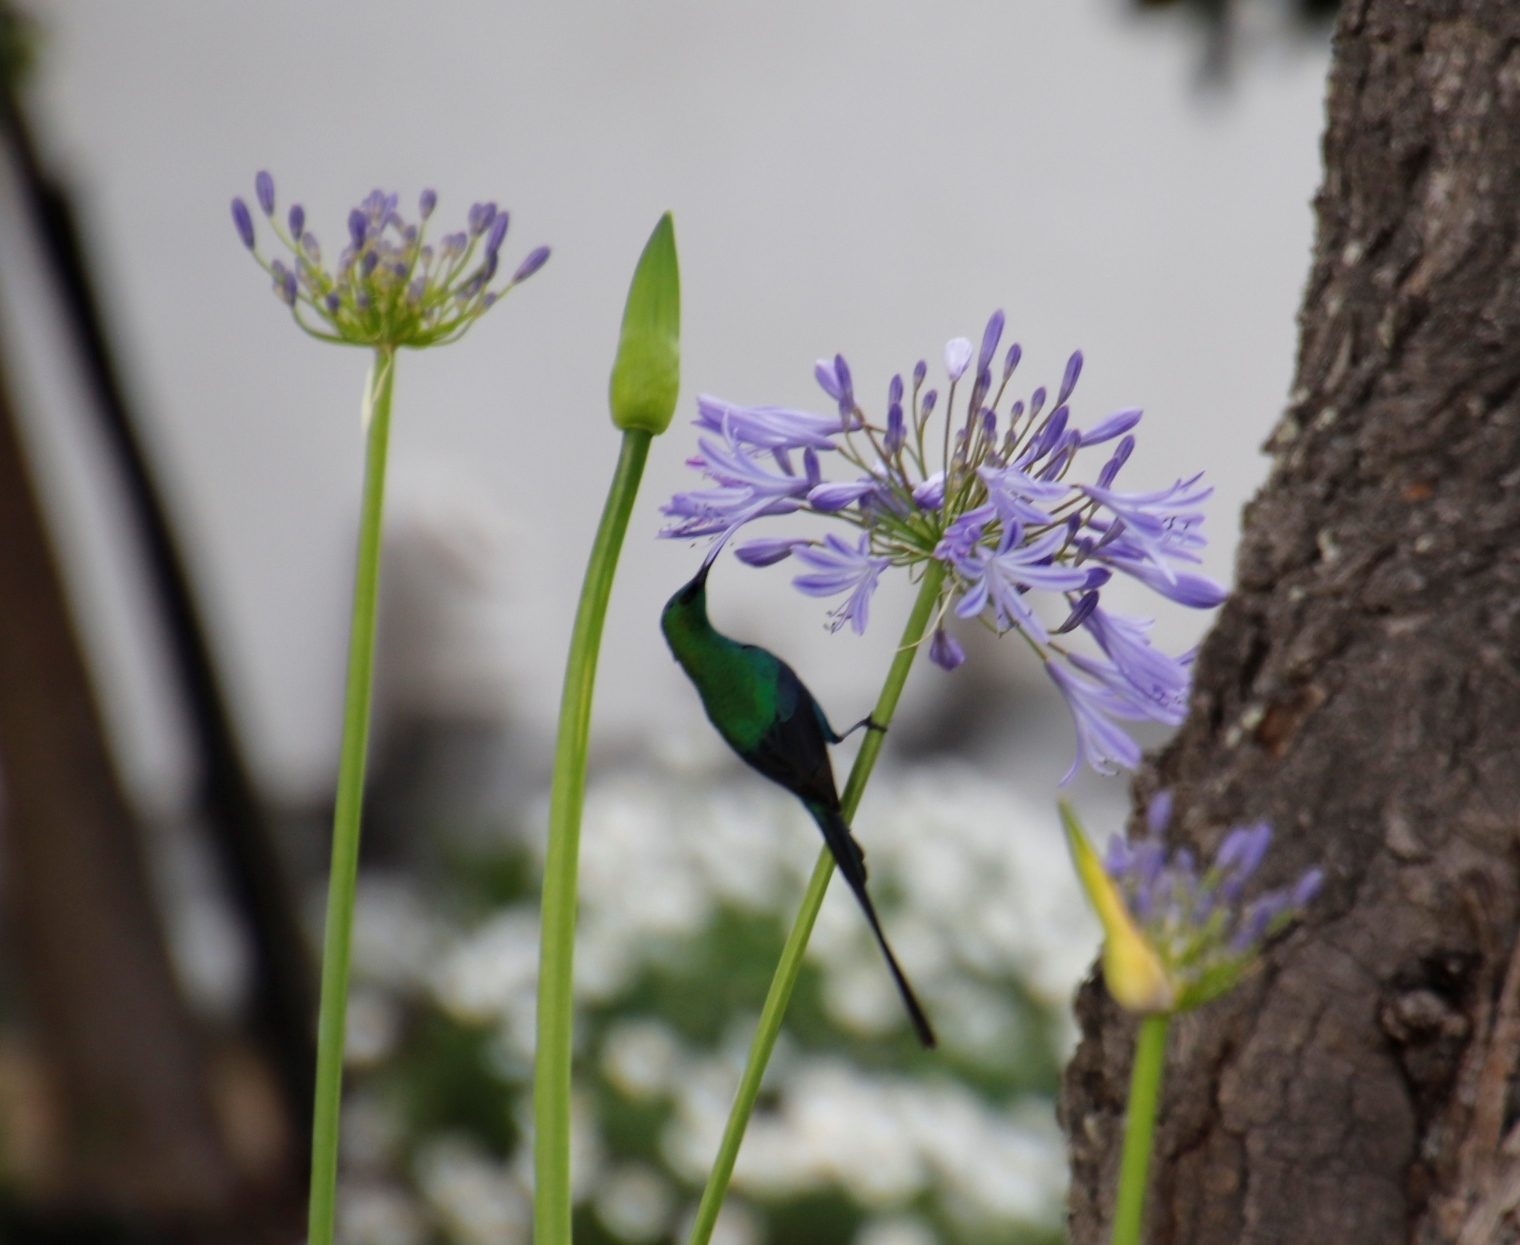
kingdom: Animalia
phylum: Chordata
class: Aves
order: Passeriformes
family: Nectariniidae
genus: Nectarinia
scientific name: Nectarinia famosa
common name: Malachite sunbird
